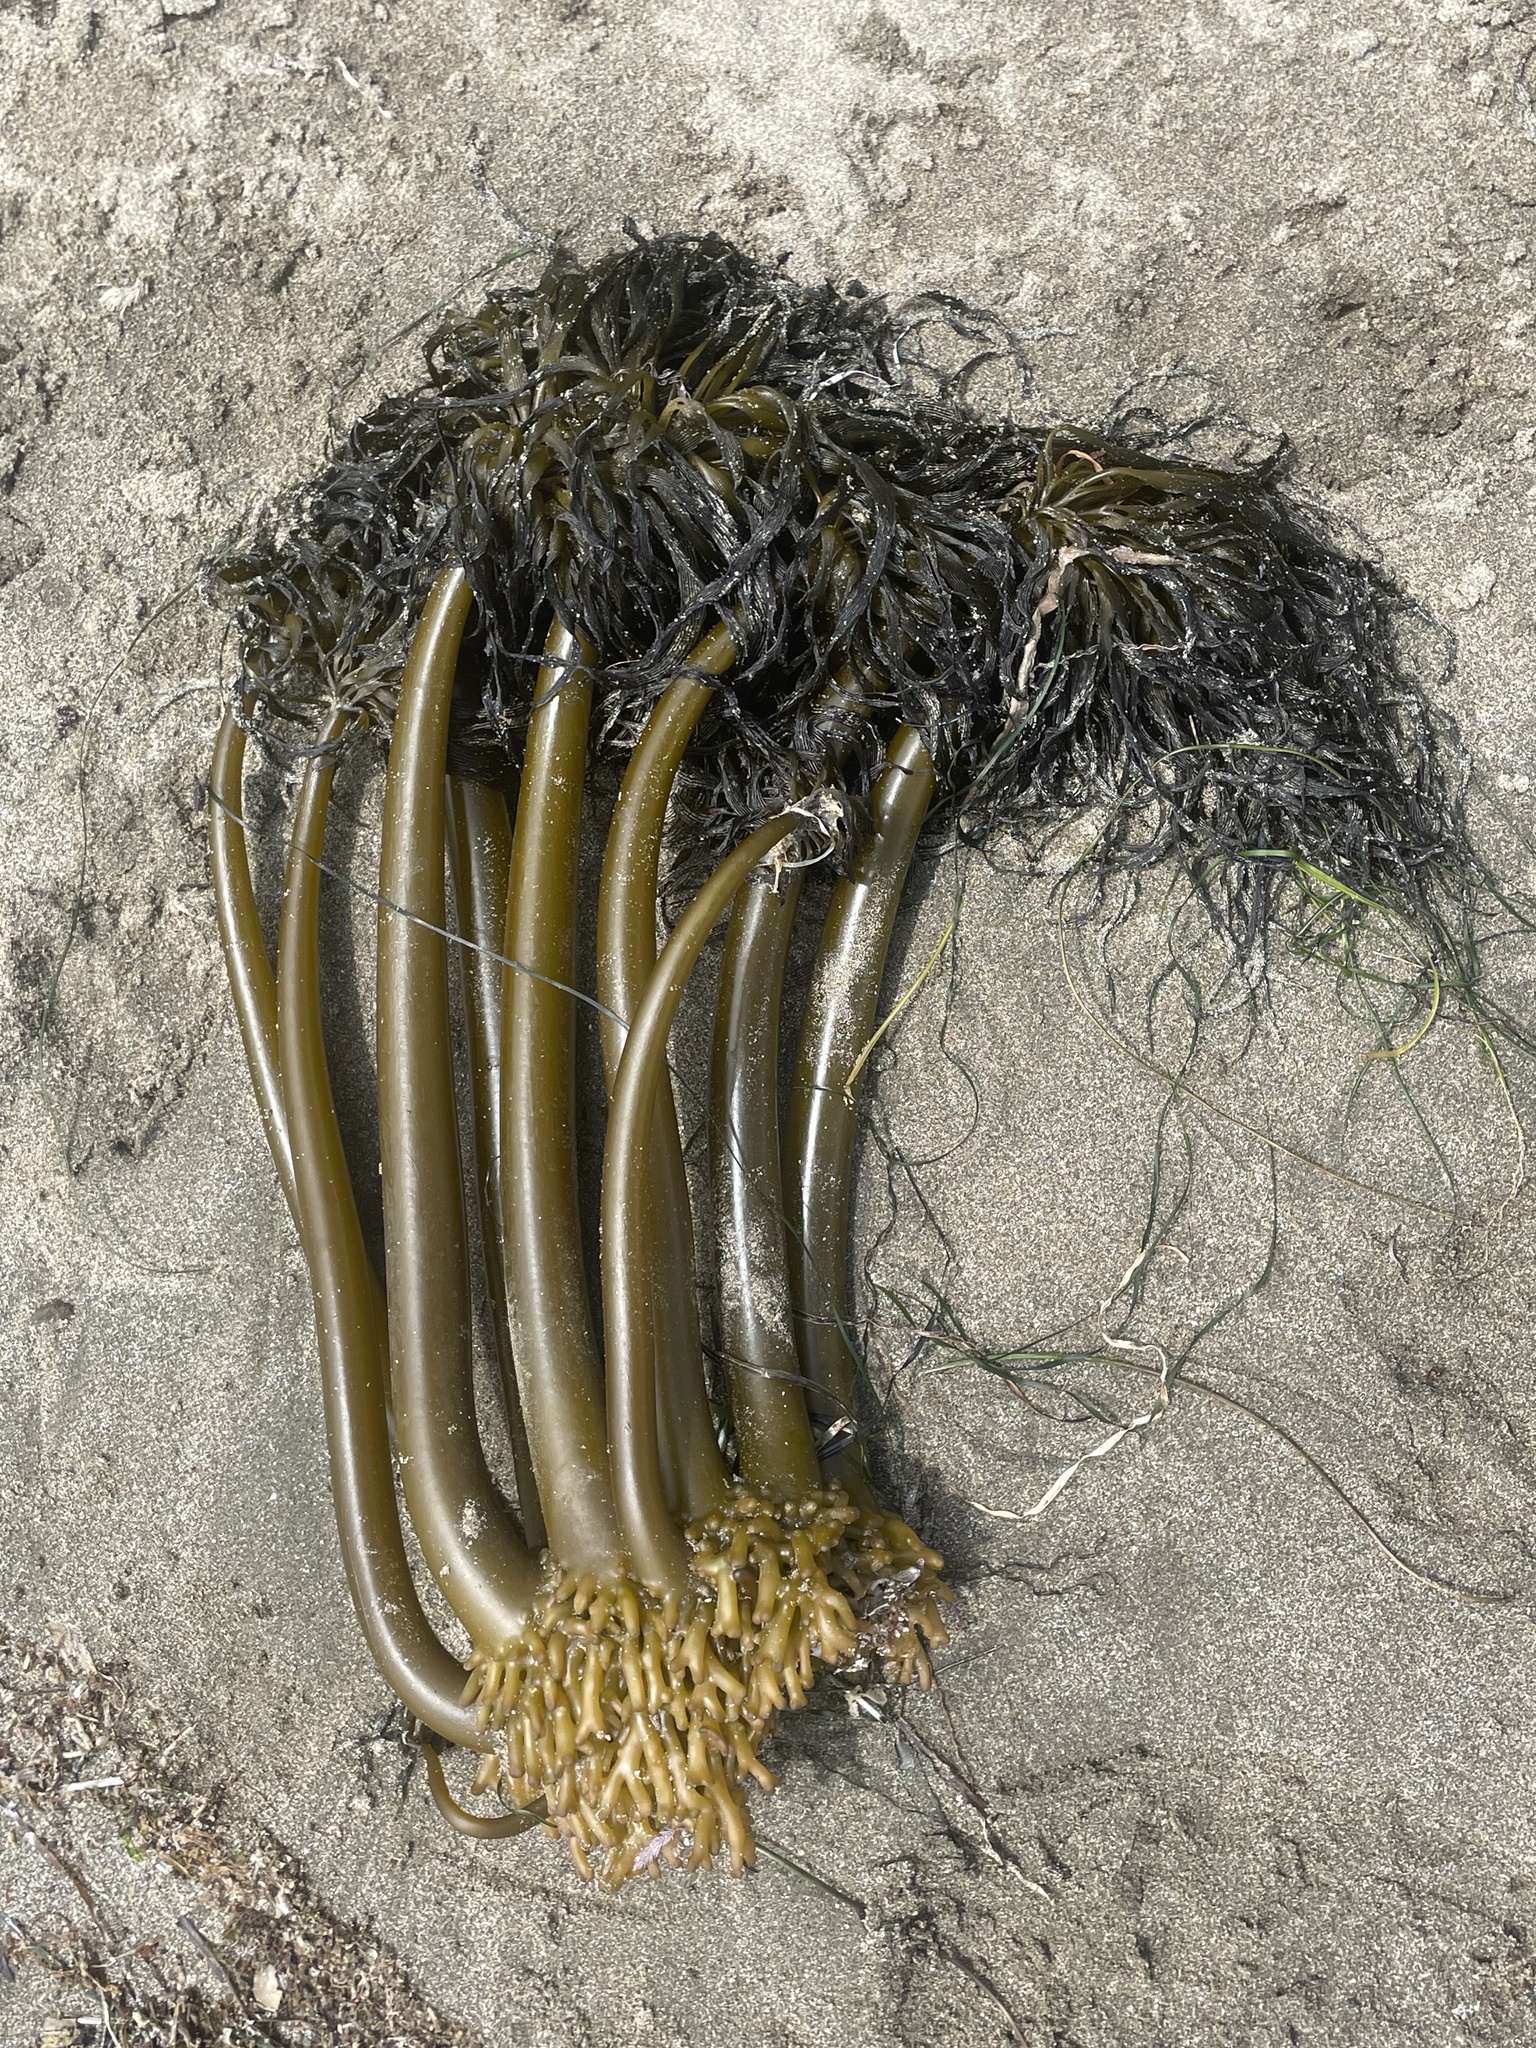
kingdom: Chromista
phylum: Ochrophyta
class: Phaeophyceae
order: Laminariales
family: Laminariaceae
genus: Postelsia
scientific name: Postelsia palmiformis
